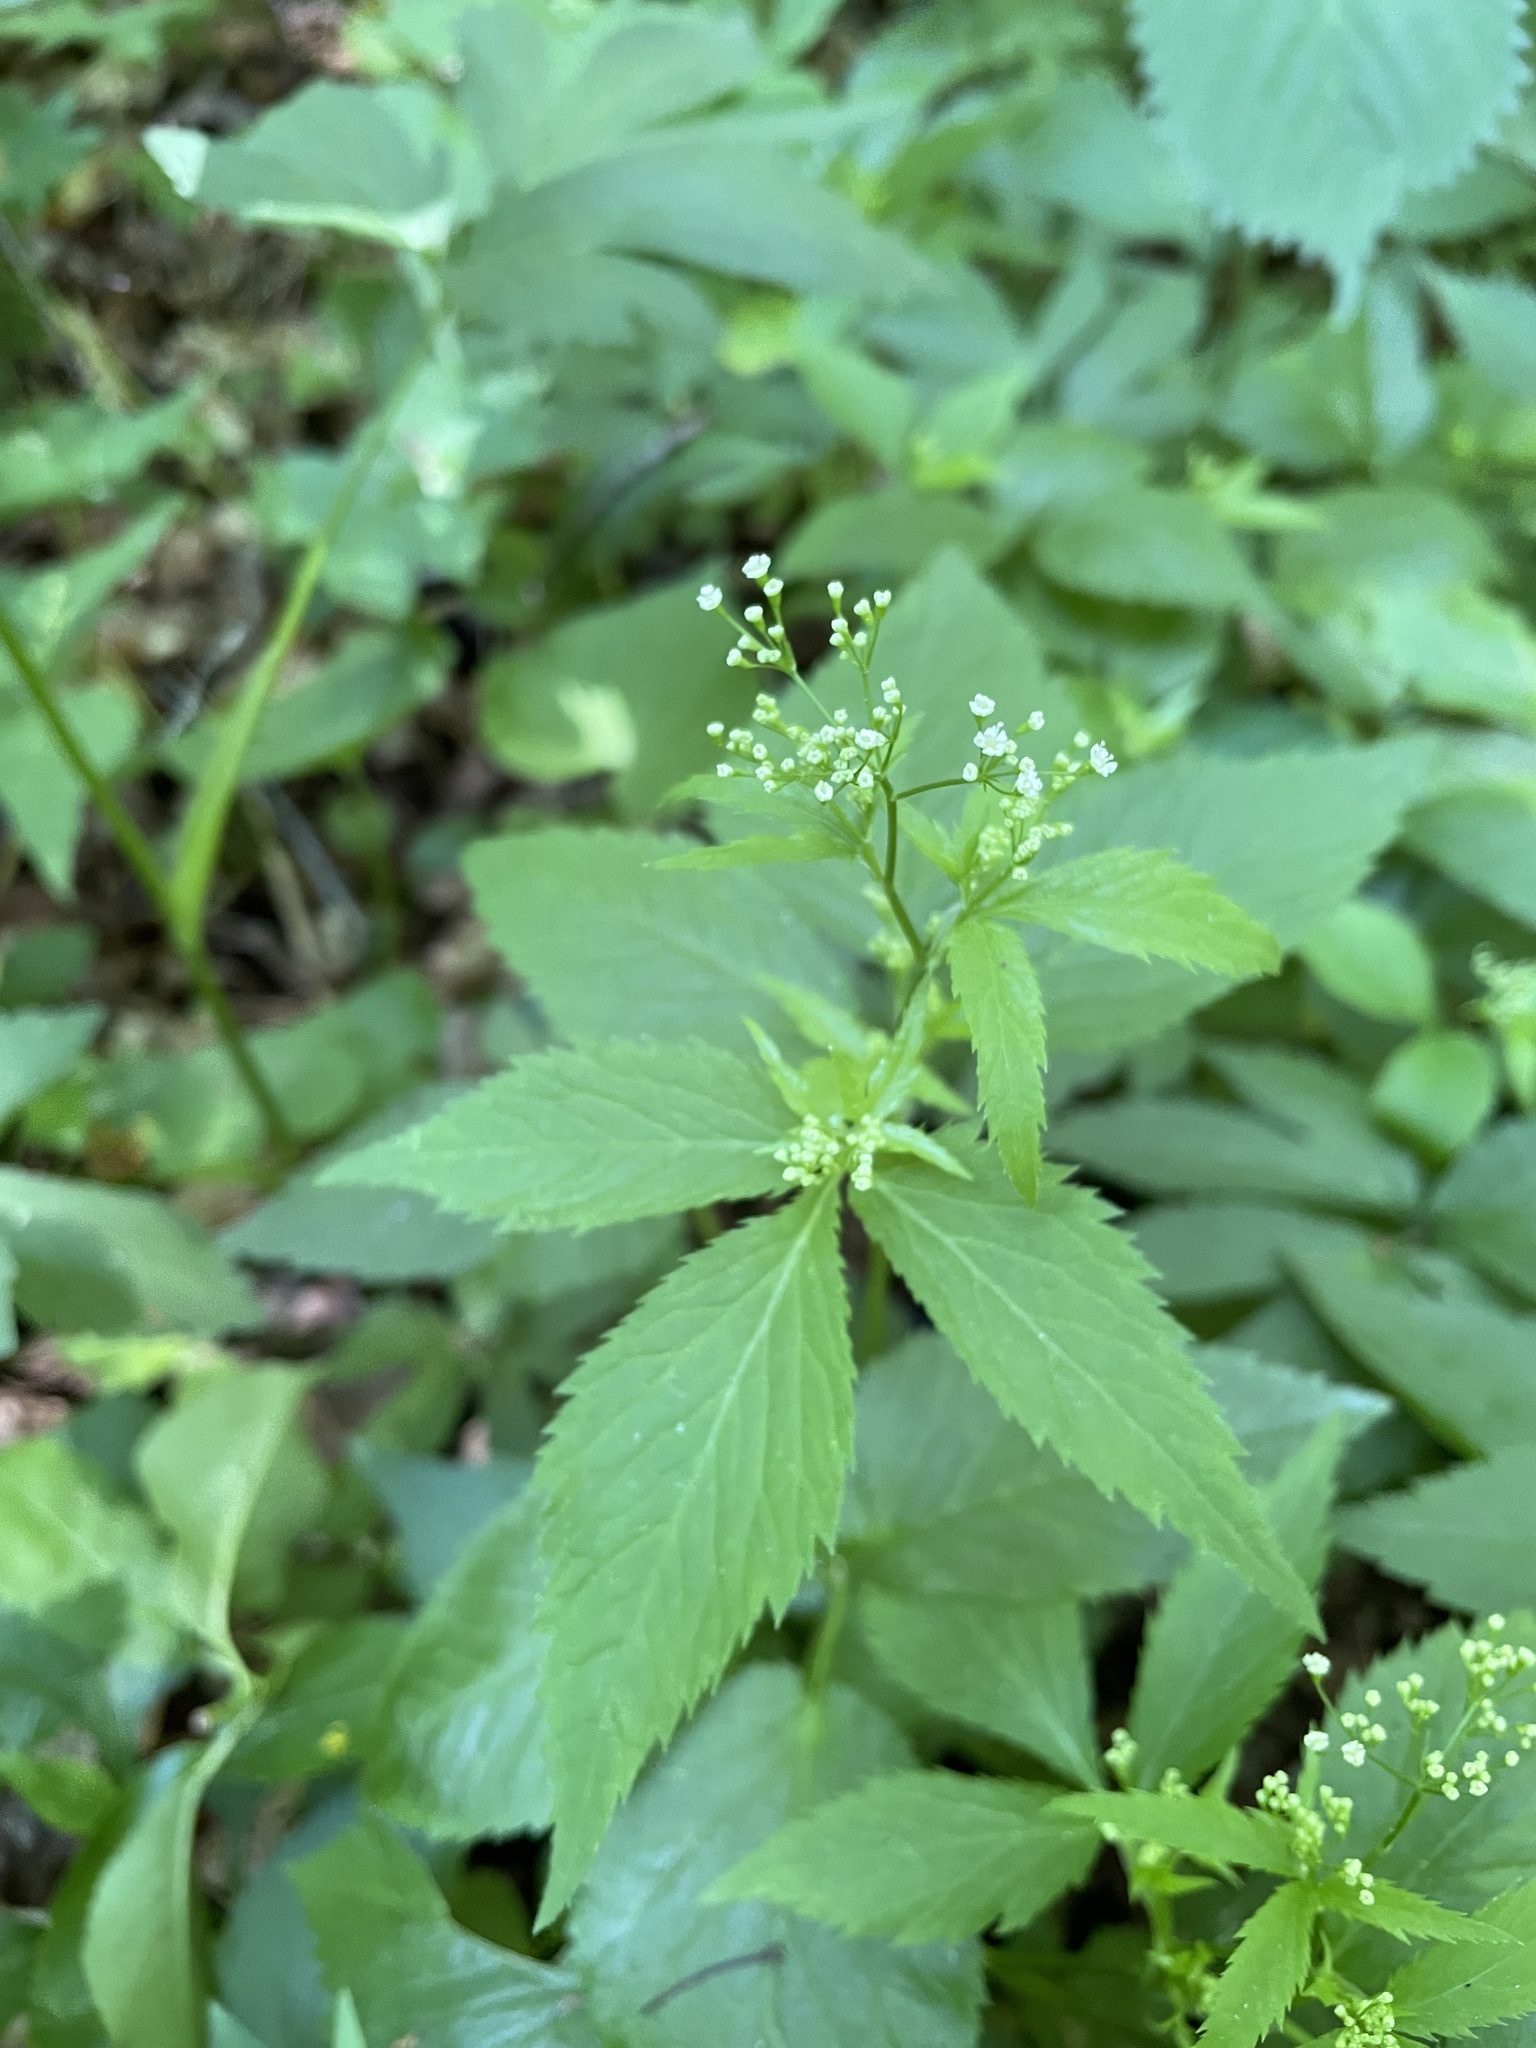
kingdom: Plantae
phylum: Tracheophyta
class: Magnoliopsida
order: Apiales
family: Apiaceae
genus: Cryptotaenia
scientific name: Cryptotaenia canadensis
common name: Honewort
